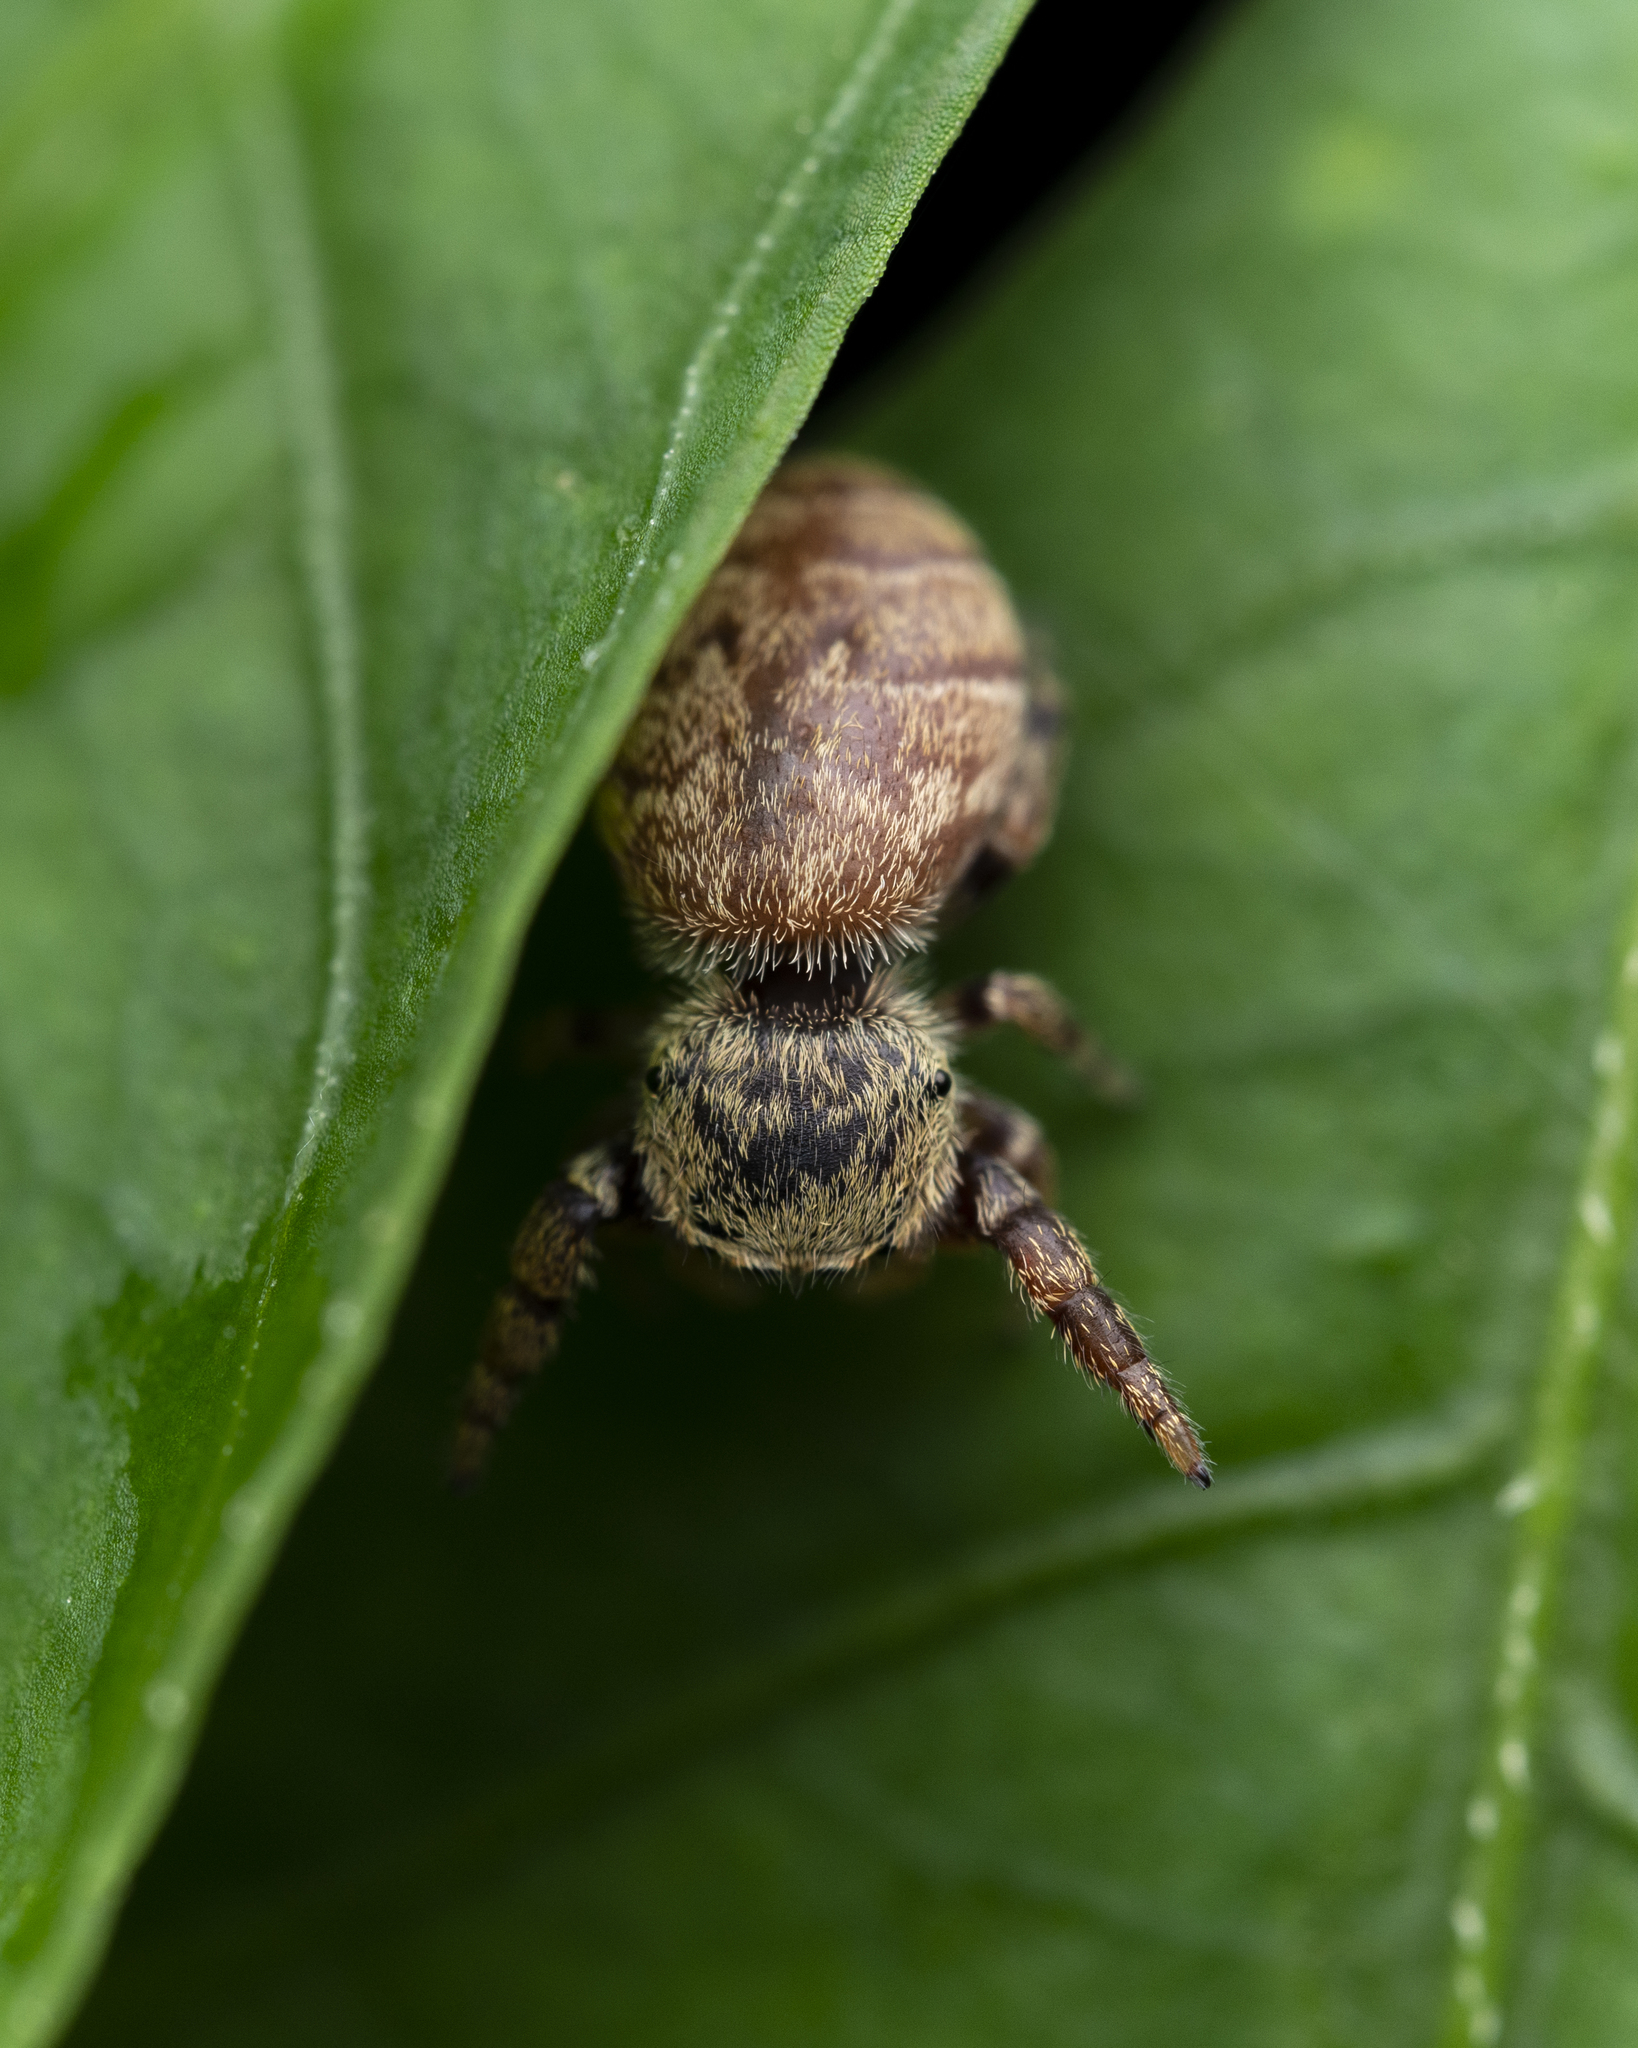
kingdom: Animalia
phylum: Arthropoda
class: Arachnida
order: Araneae
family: Salticidae
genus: Rhene
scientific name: Rhene flavicomans
